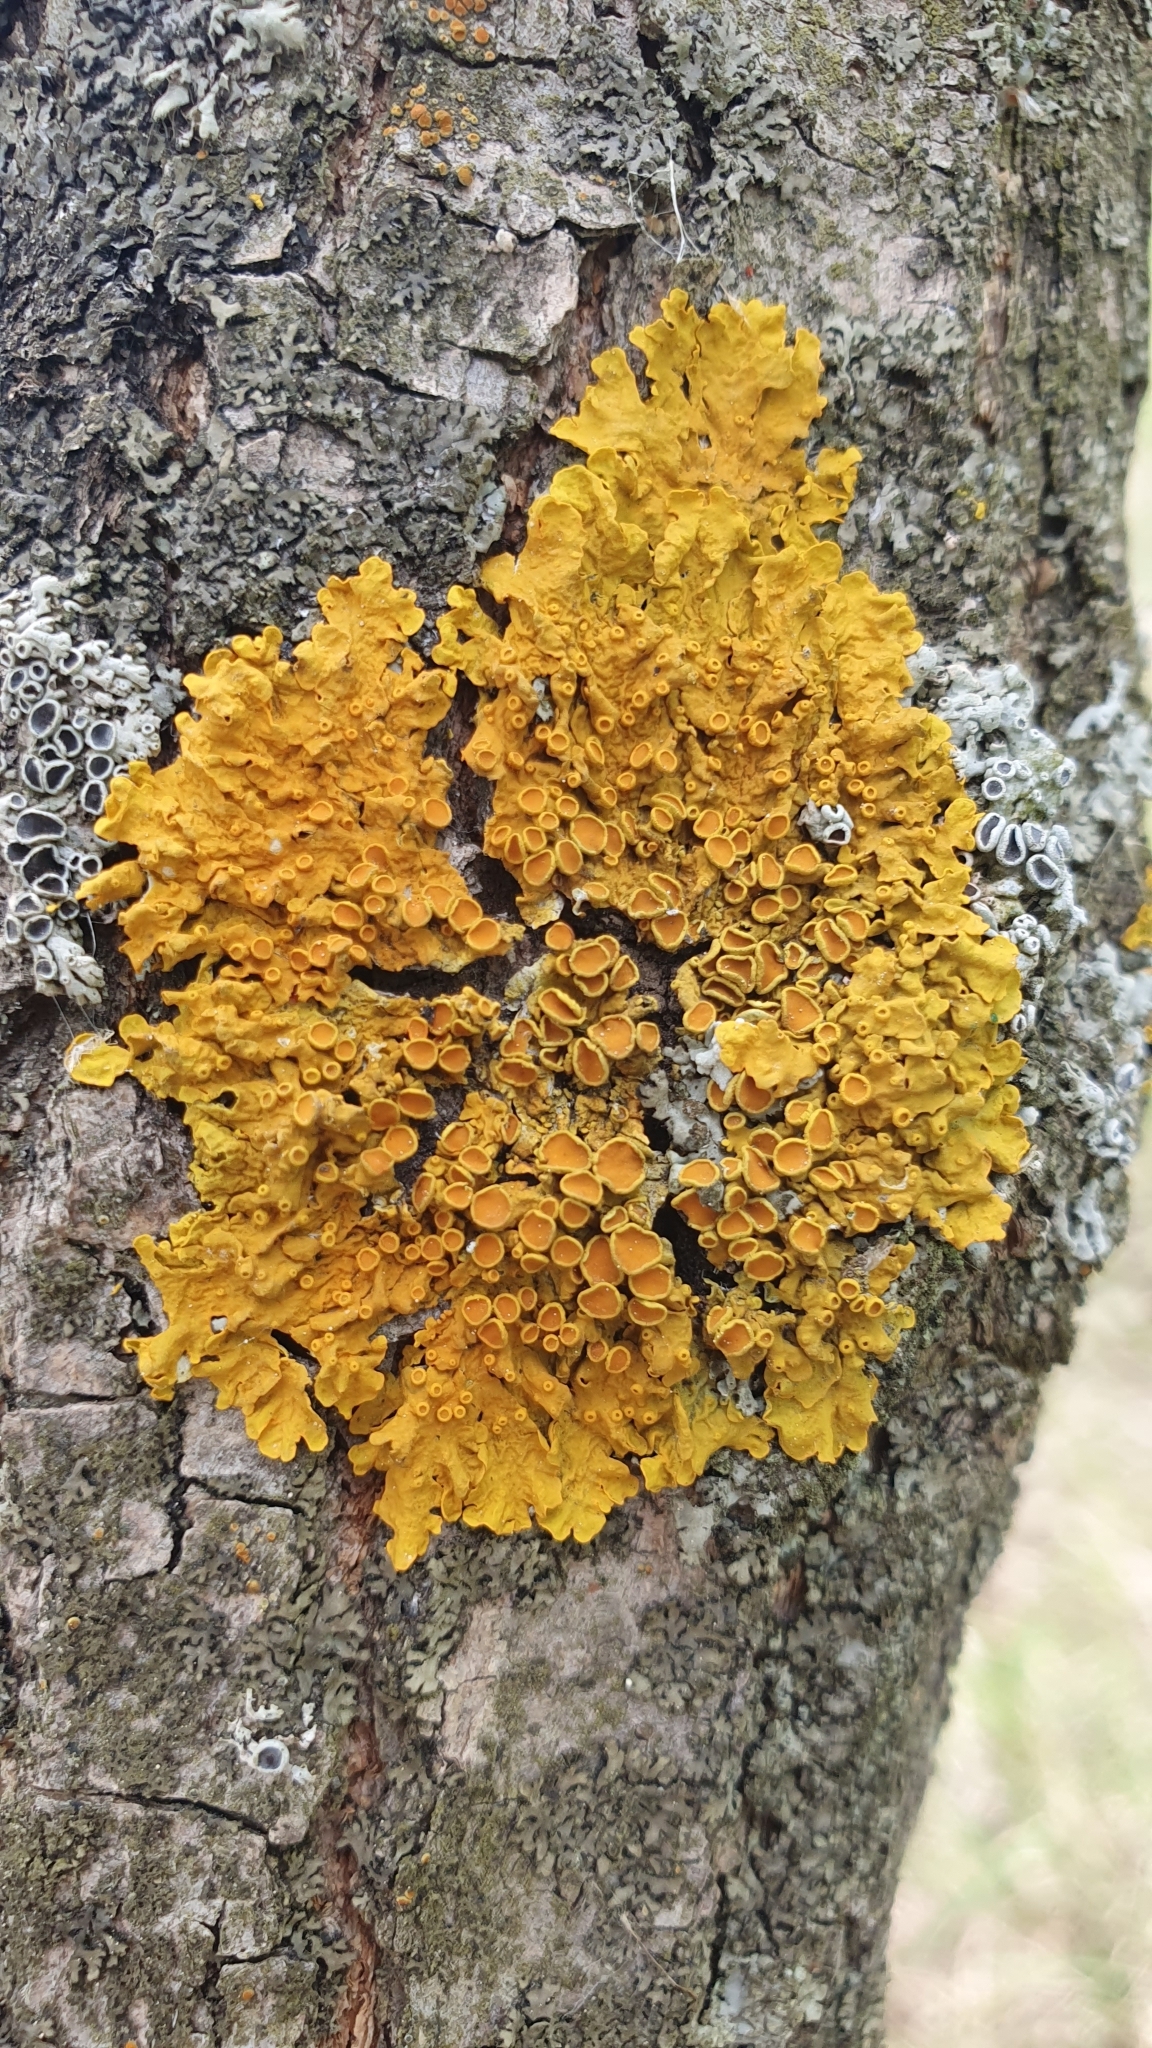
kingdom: Fungi
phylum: Ascomycota
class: Lecanoromycetes
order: Teloschistales
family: Teloschistaceae
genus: Xanthoria
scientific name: Xanthoria parietina
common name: Common orange lichen
